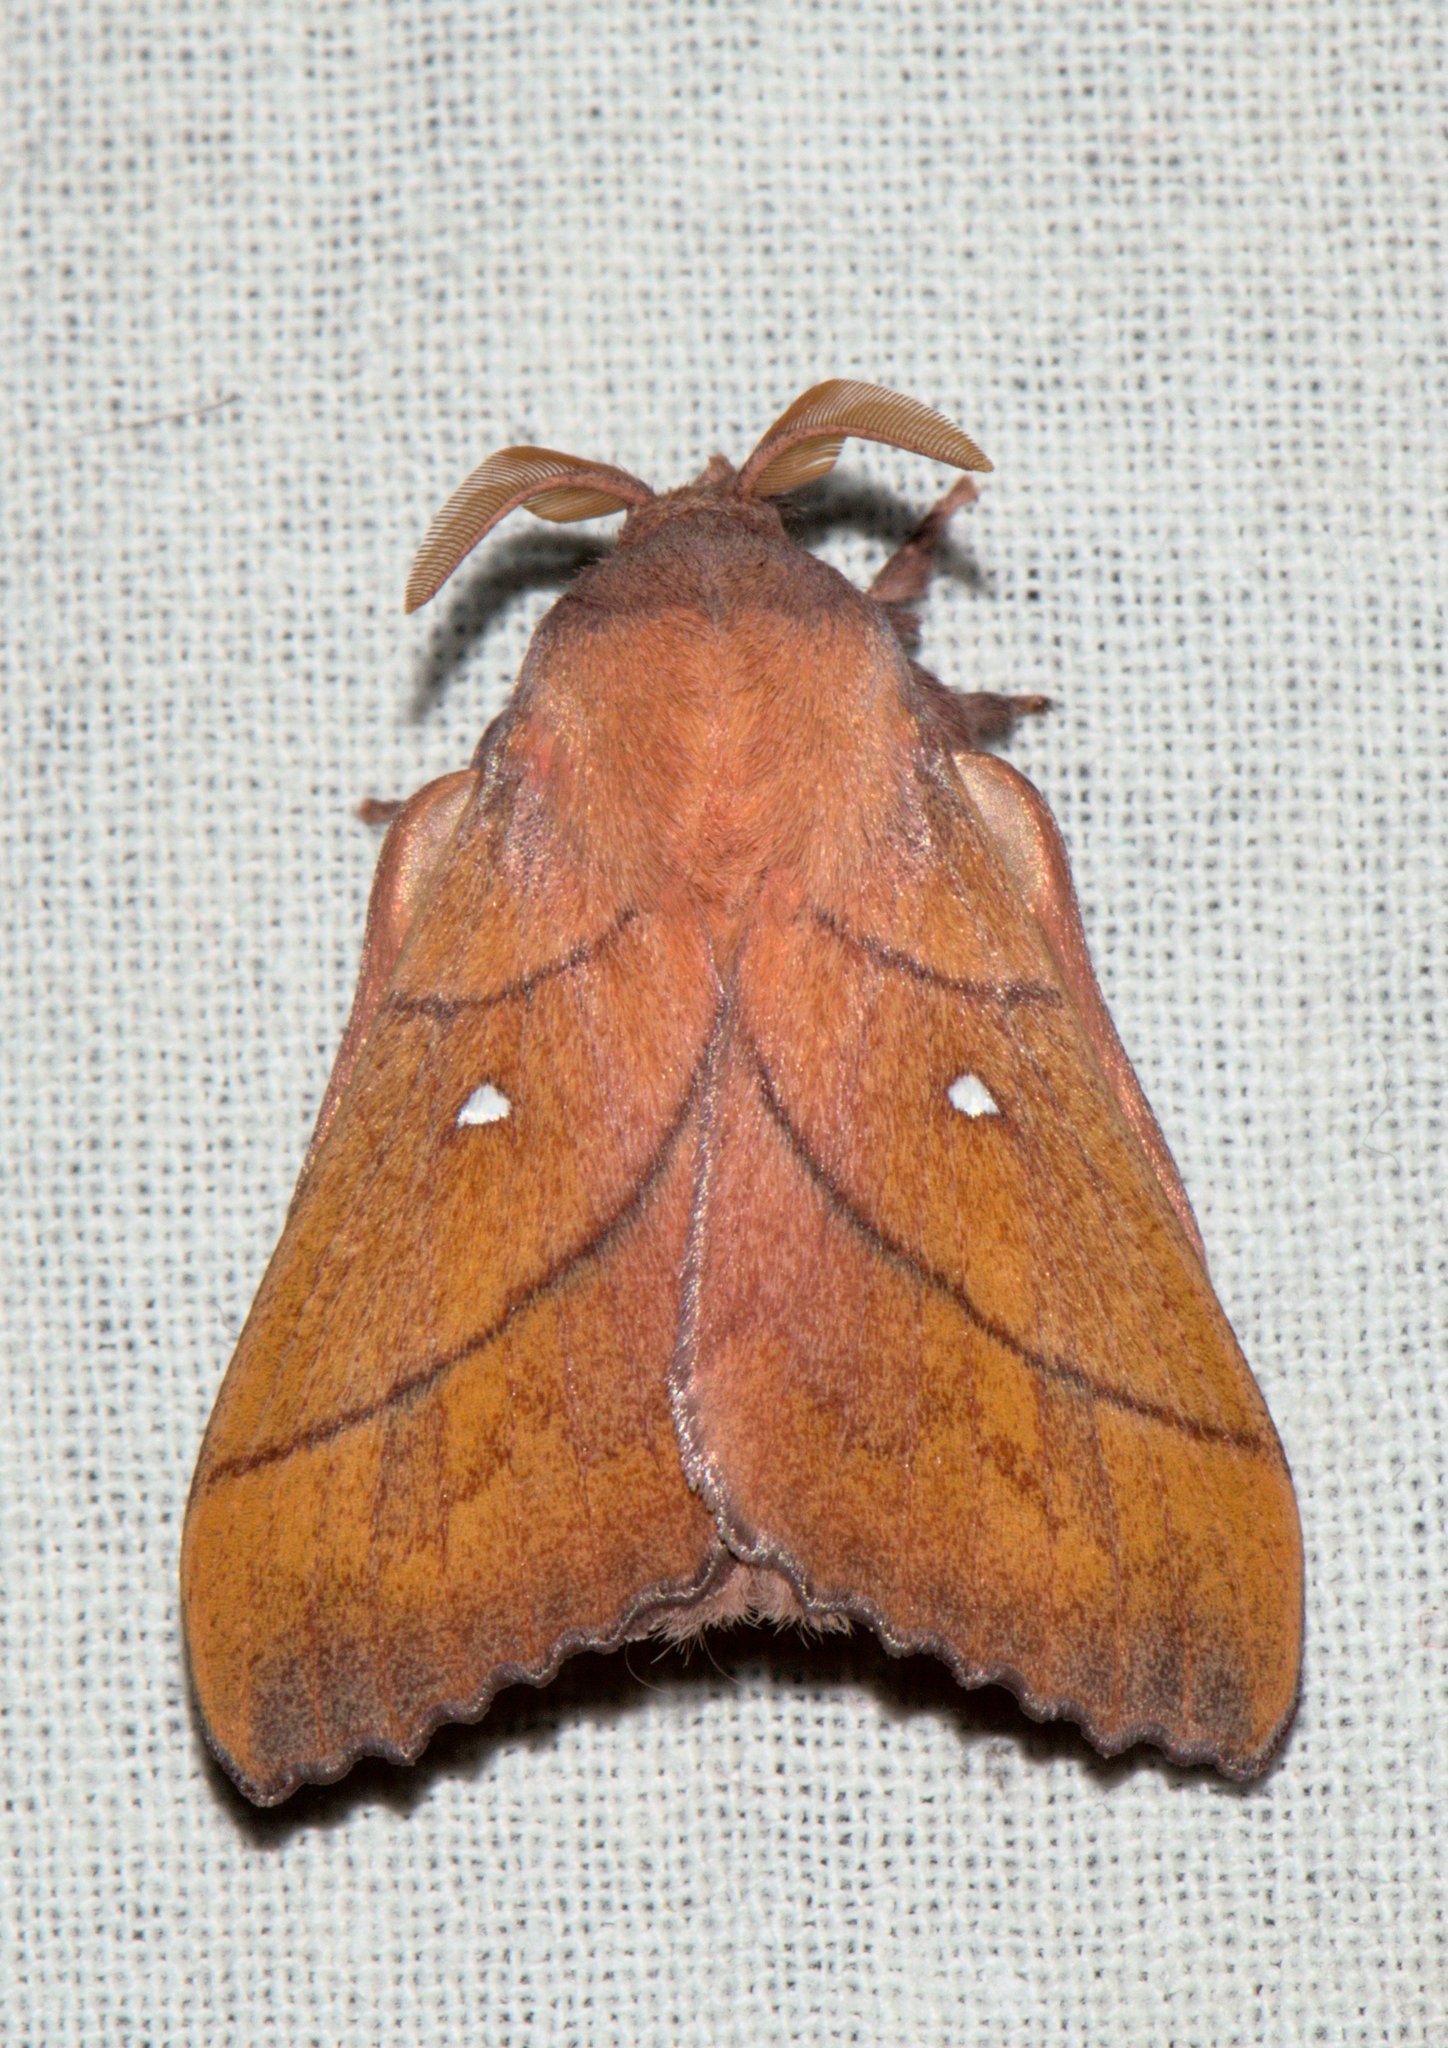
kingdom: Animalia
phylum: Arthropoda
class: Insecta
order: Lepidoptera
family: Lasiocampidae
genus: Odonestis
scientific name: Odonestis pruni
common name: Plum lappet
